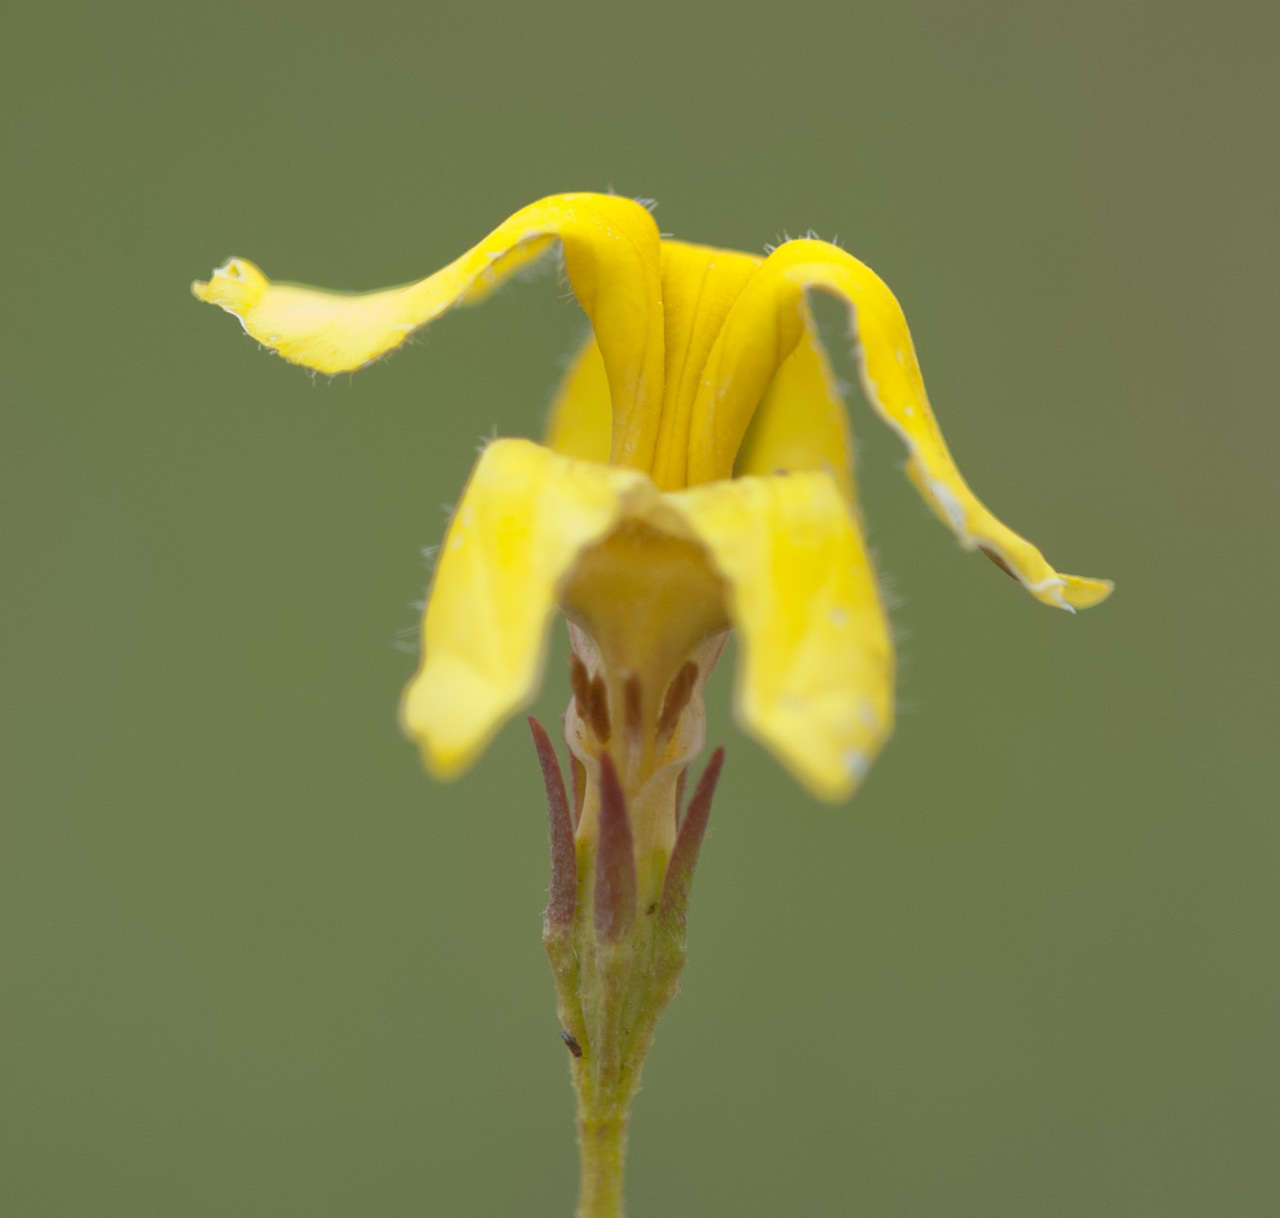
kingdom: Plantae
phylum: Tracheophyta
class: Magnoliopsida
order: Asterales
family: Goodeniaceae
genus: Goodenia
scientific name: Goodenia pinnatifida
